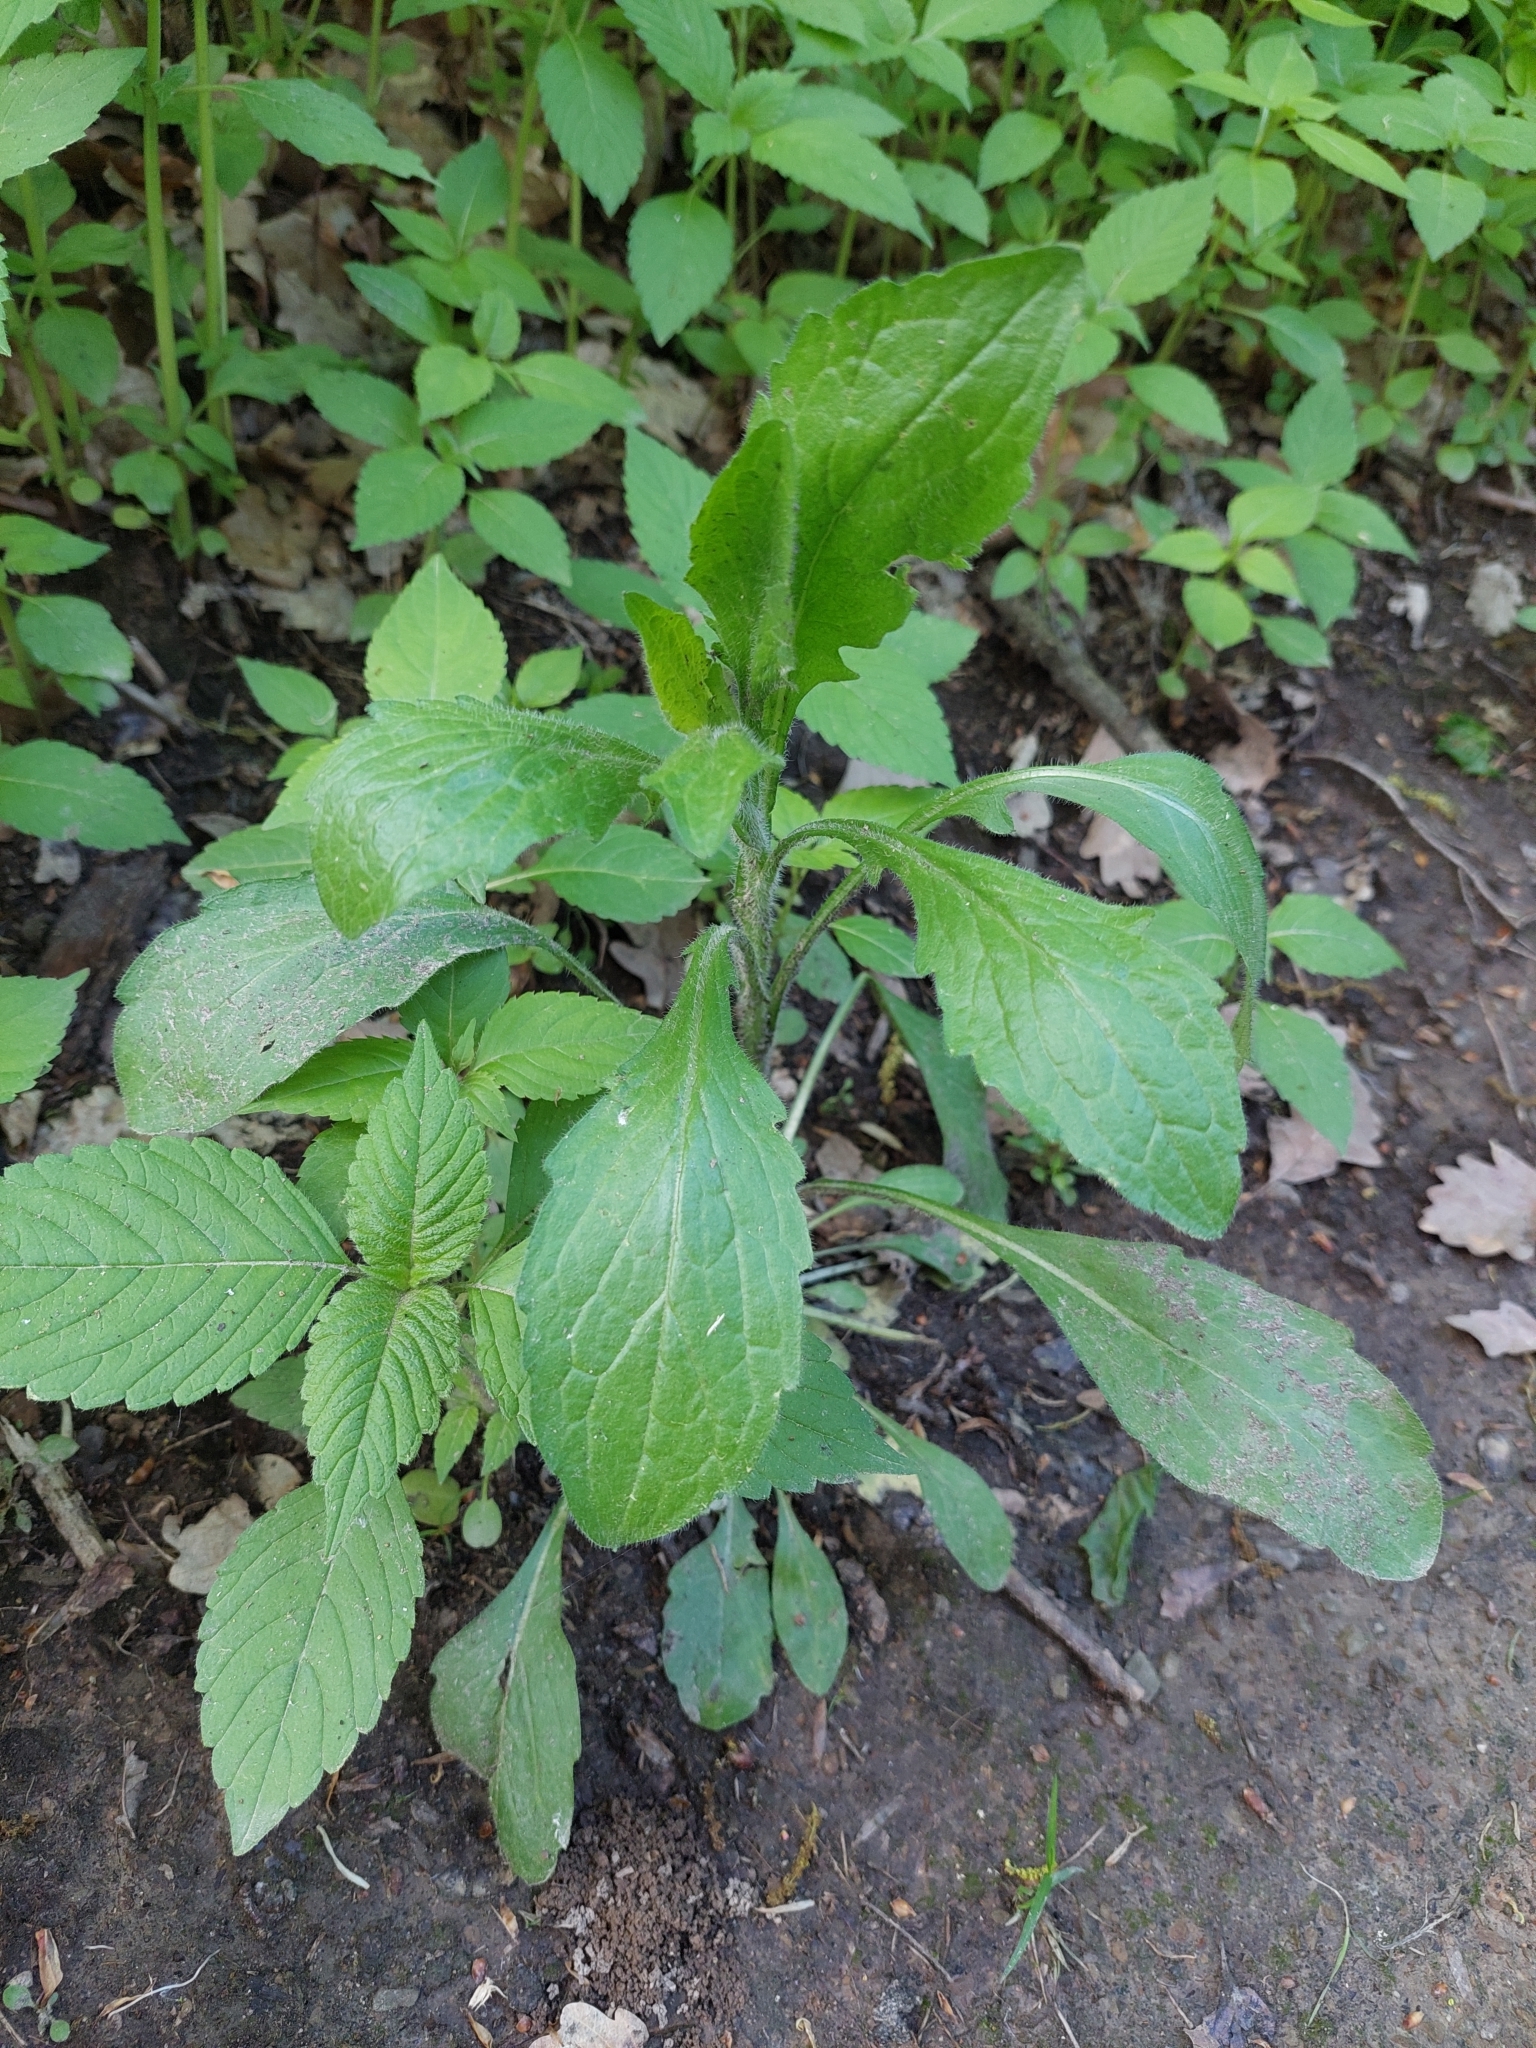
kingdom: Plantae
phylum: Tracheophyta
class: Magnoliopsida
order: Asterales
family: Asteraceae
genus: Erigeron
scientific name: Erigeron annuus
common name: Tall fleabane
